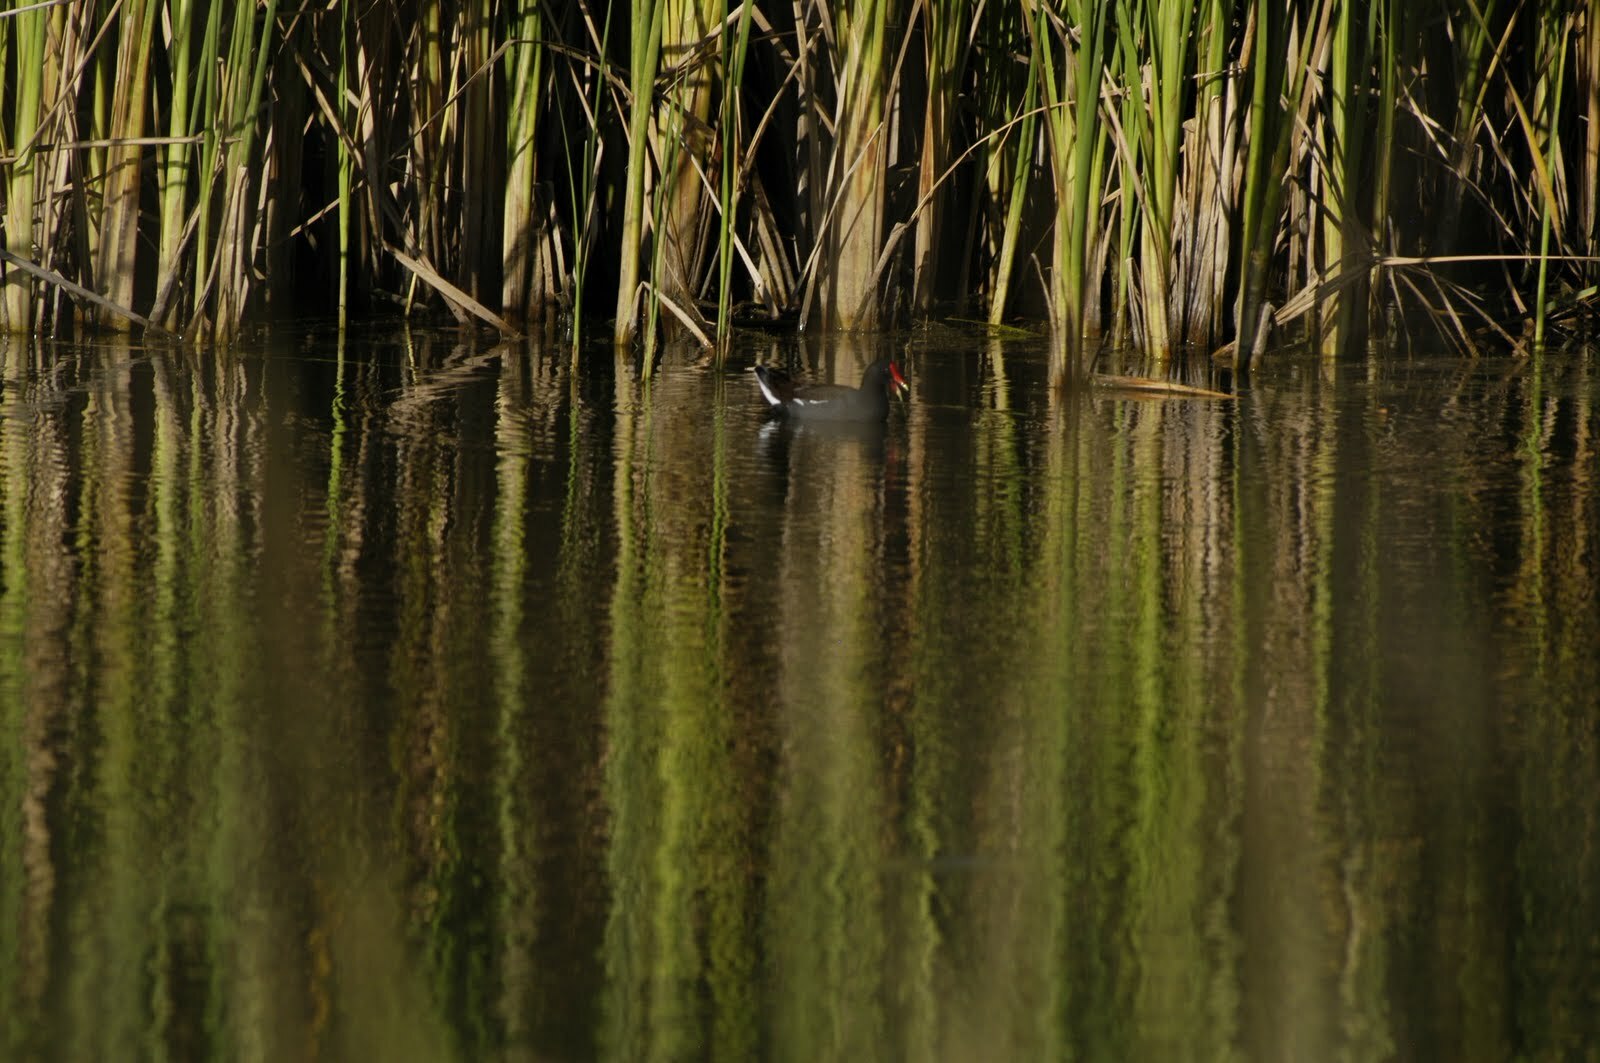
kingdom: Animalia
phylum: Chordata
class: Aves
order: Gruiformes
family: Rallidae
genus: Gallinula
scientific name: Gallinula chloropus
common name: Common moorhen
